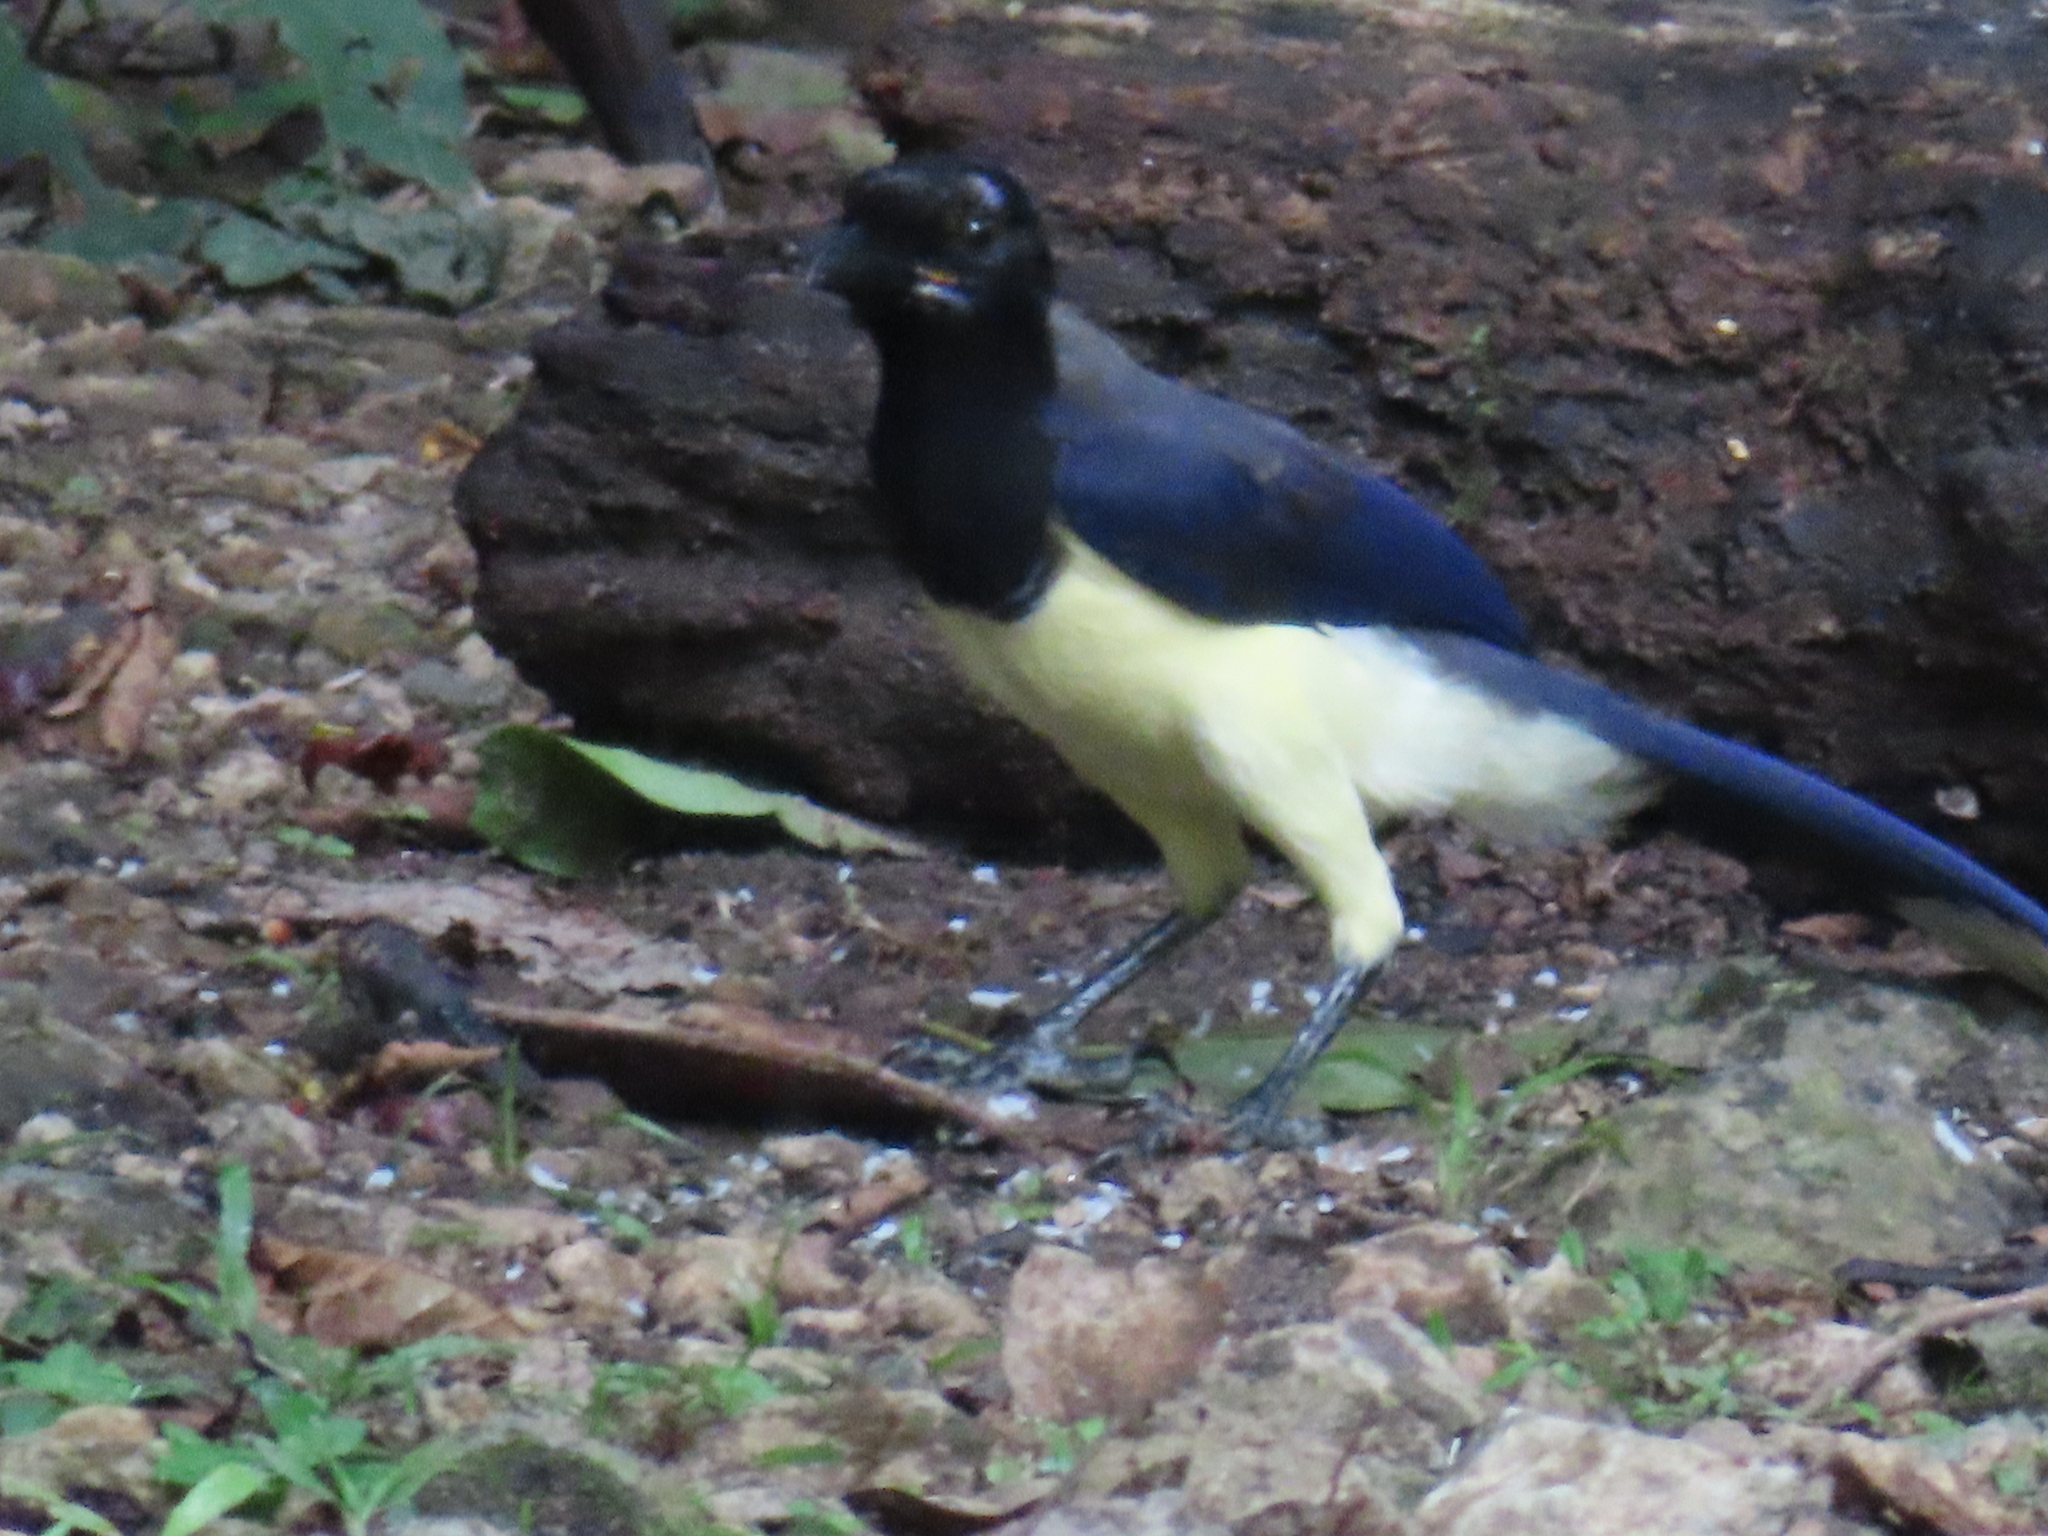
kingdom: Animalia
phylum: Chordata
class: Aves
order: Passeriformes
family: Corvidae
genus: Cyanocorax
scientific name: Cyanocorax affinis
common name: Black-chested jay
